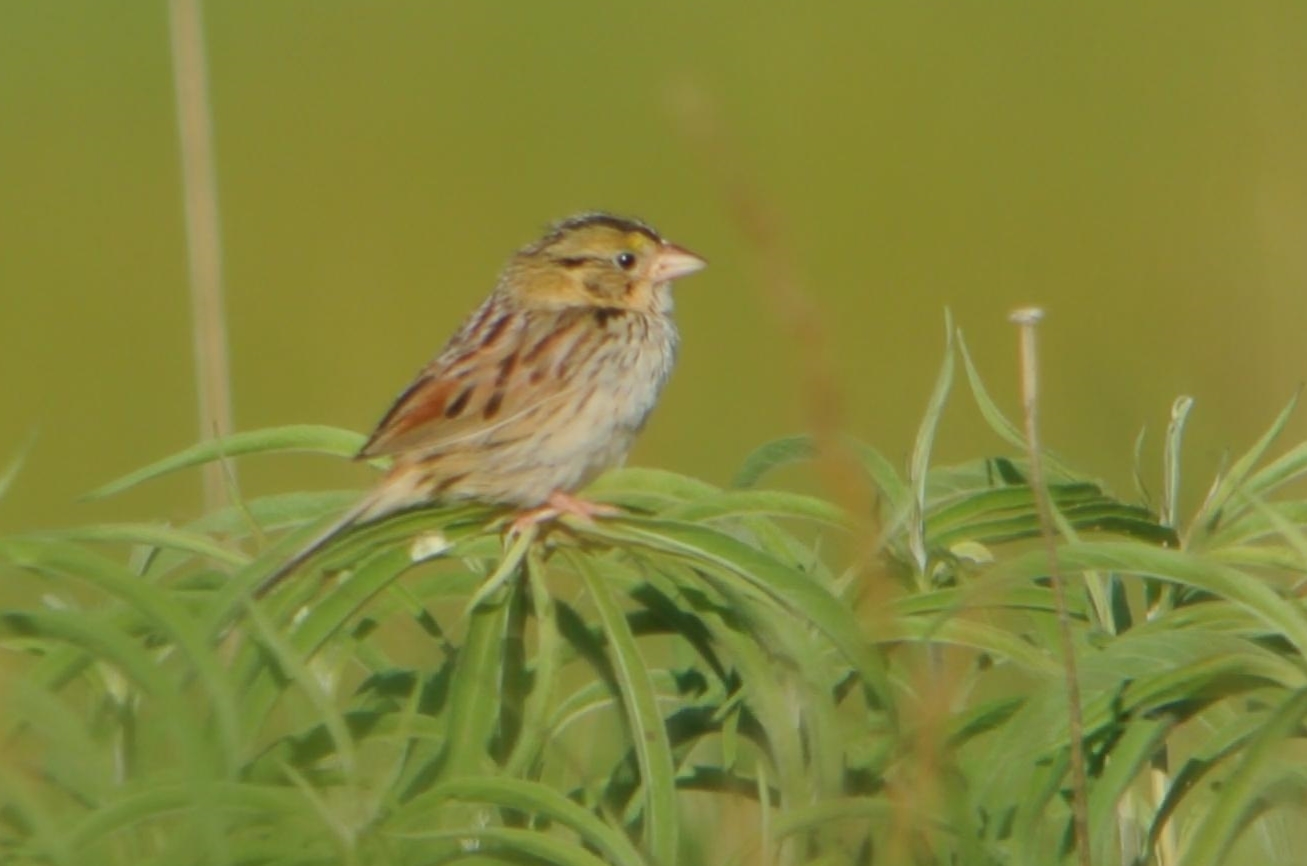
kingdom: Animalia
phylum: Chordata
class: Aves
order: Passeriformes
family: Passerellidae
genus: Centronyx
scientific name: Centronyx henslowii
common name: Henslow's sparrow
